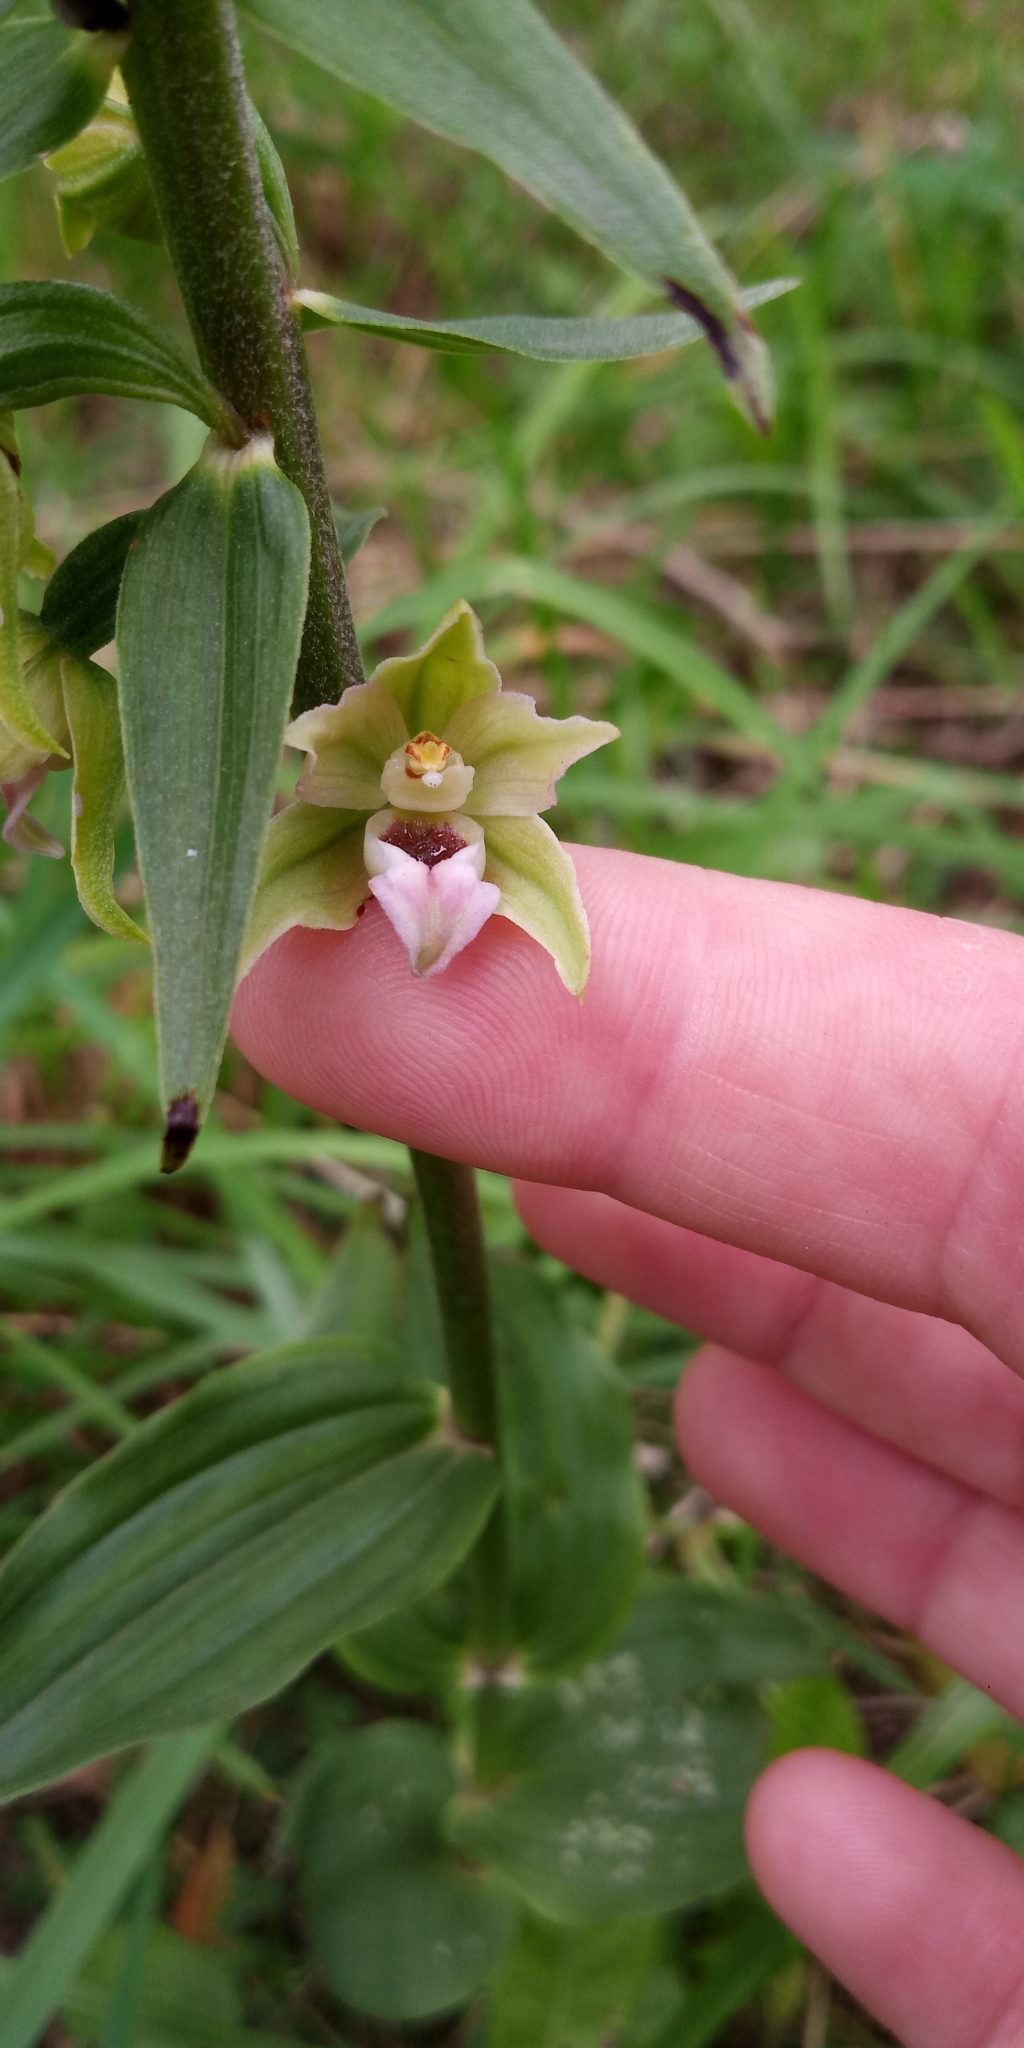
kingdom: Plantae
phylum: Tracheophyta
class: Liliopsida
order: Asparagales
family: Orchidaceae
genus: Epipactis
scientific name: Epipactis helleborine
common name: Broad-leaved helleborine
